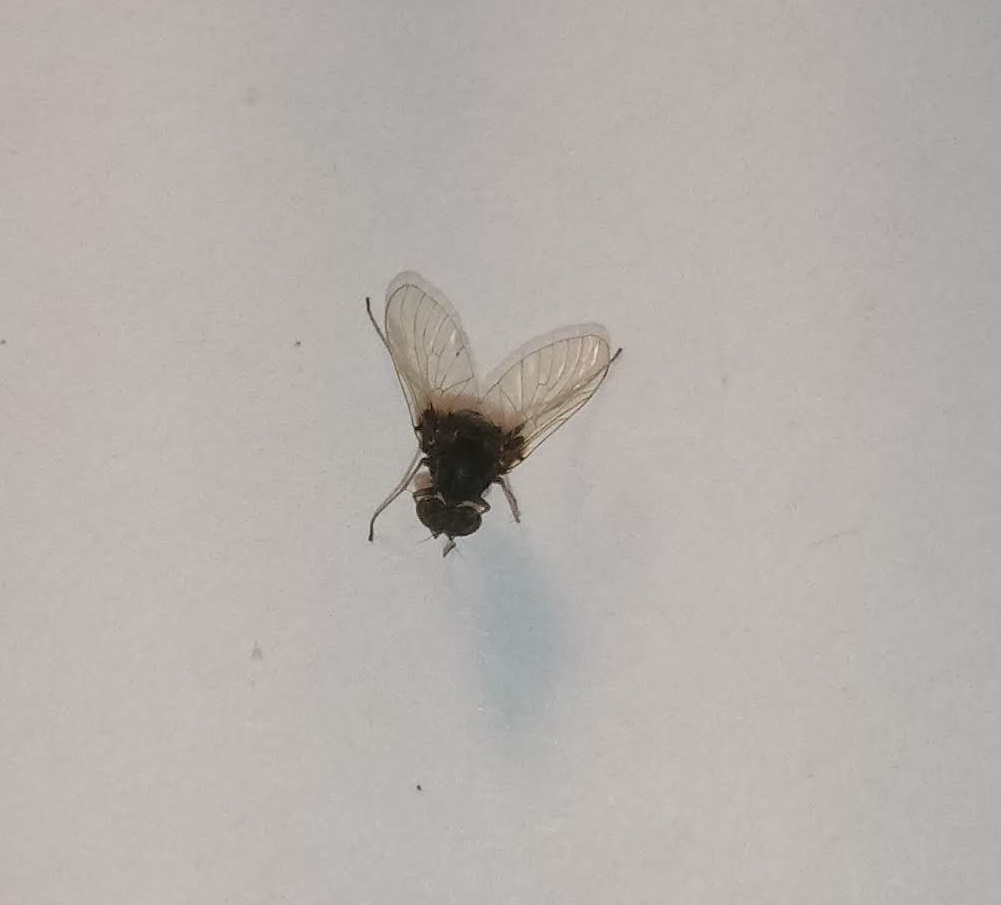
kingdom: Animalia
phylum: Arthropoda
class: Insecta
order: Diptera
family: Rhagionidae
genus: Chrysopilus
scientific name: Chrysopilus basilaris
